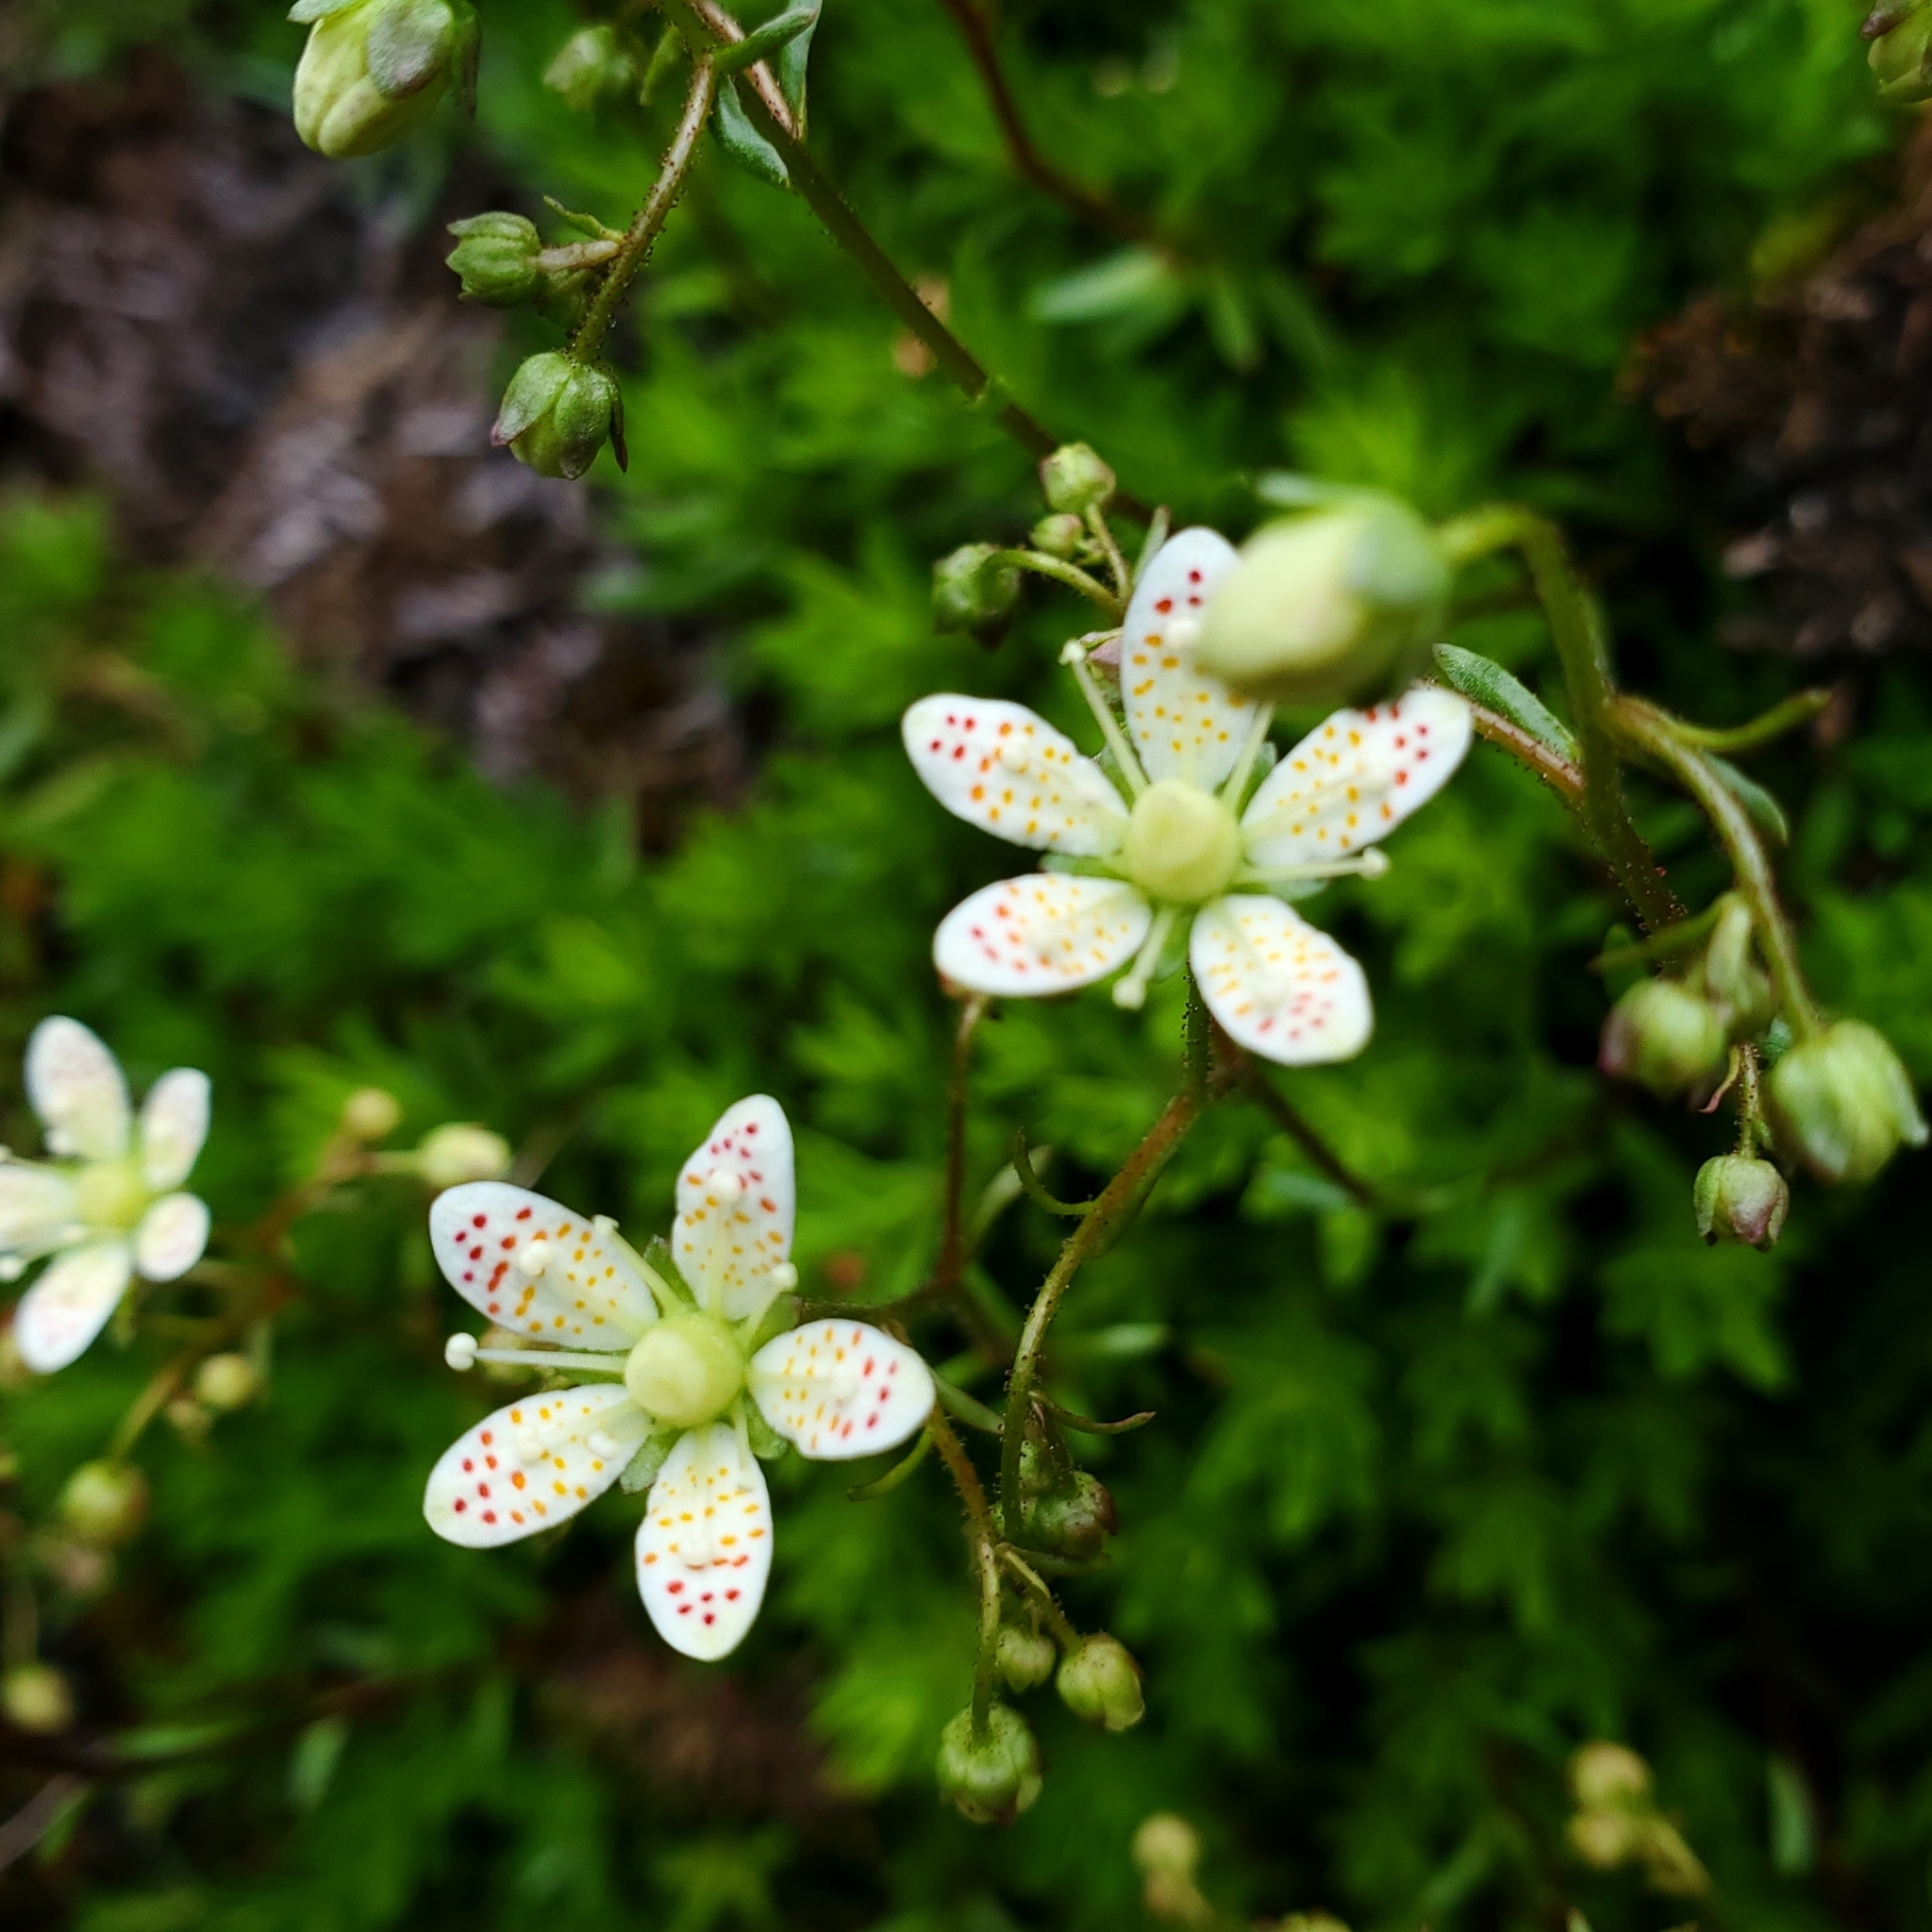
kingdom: Plantae
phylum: Tracheophyta
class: Magnoliopsida
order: Saxifragales
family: Saxifragaceae
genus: Saxifraga
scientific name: Saxifraga bronchialis
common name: Matted saxifrage
